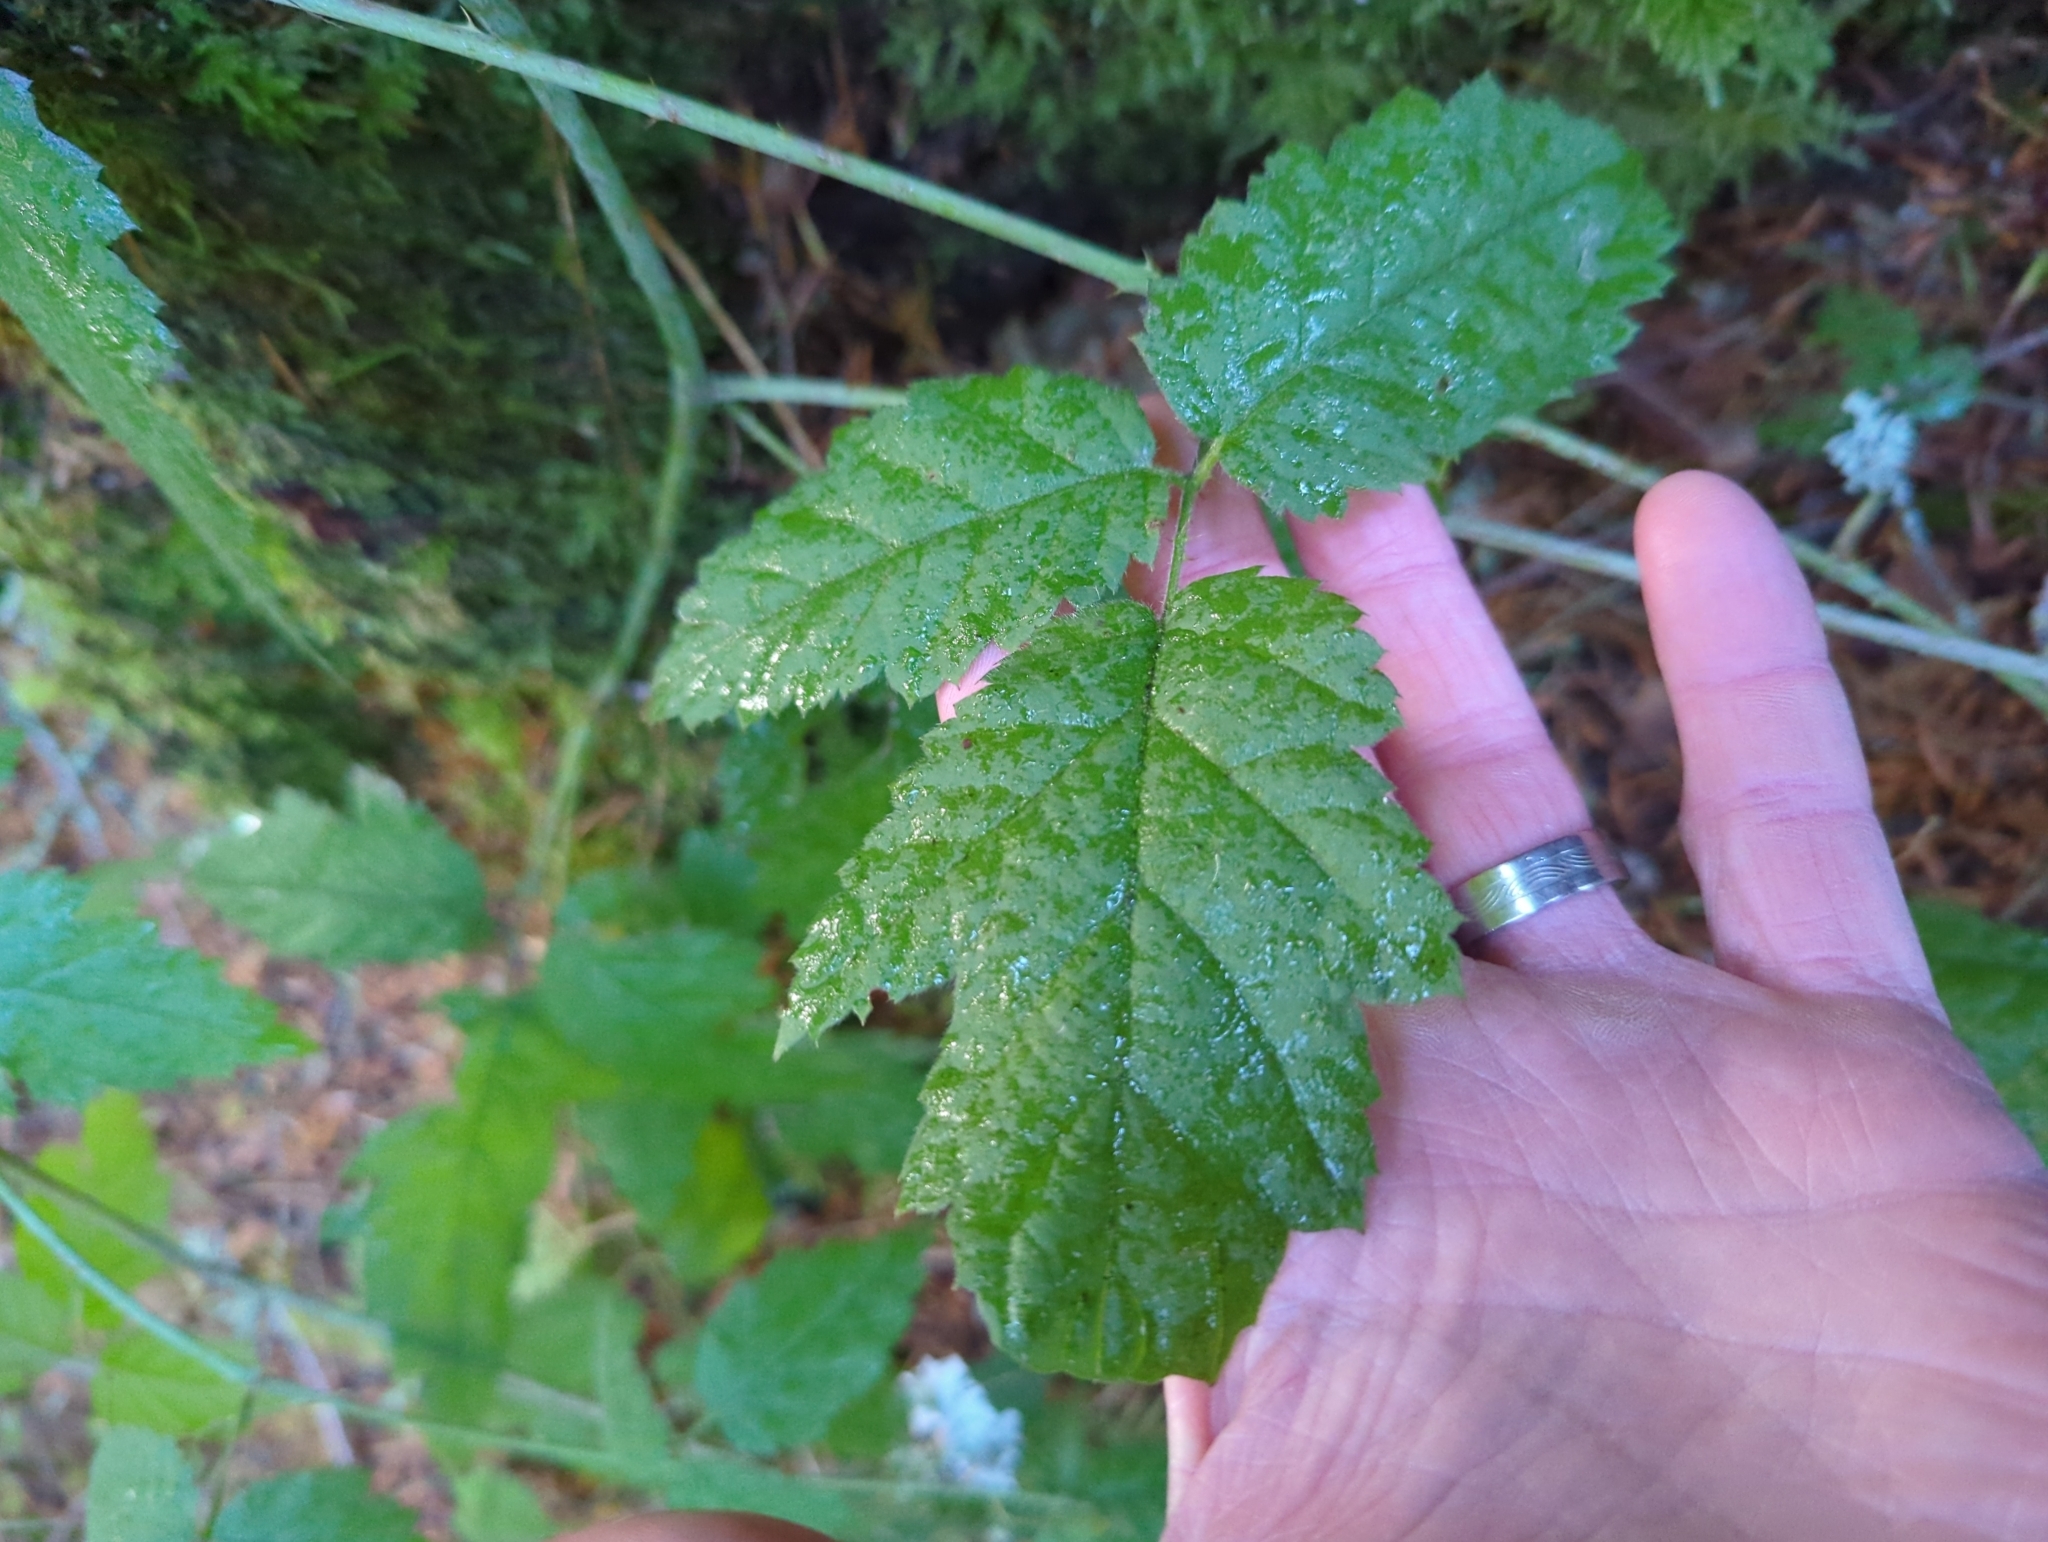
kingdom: Plantae
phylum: Tracheophyta
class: Magnoliopsida
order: Rosales
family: Rosaceae
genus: Rubus
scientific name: Rubus ursinus
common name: Pacific blackberry
